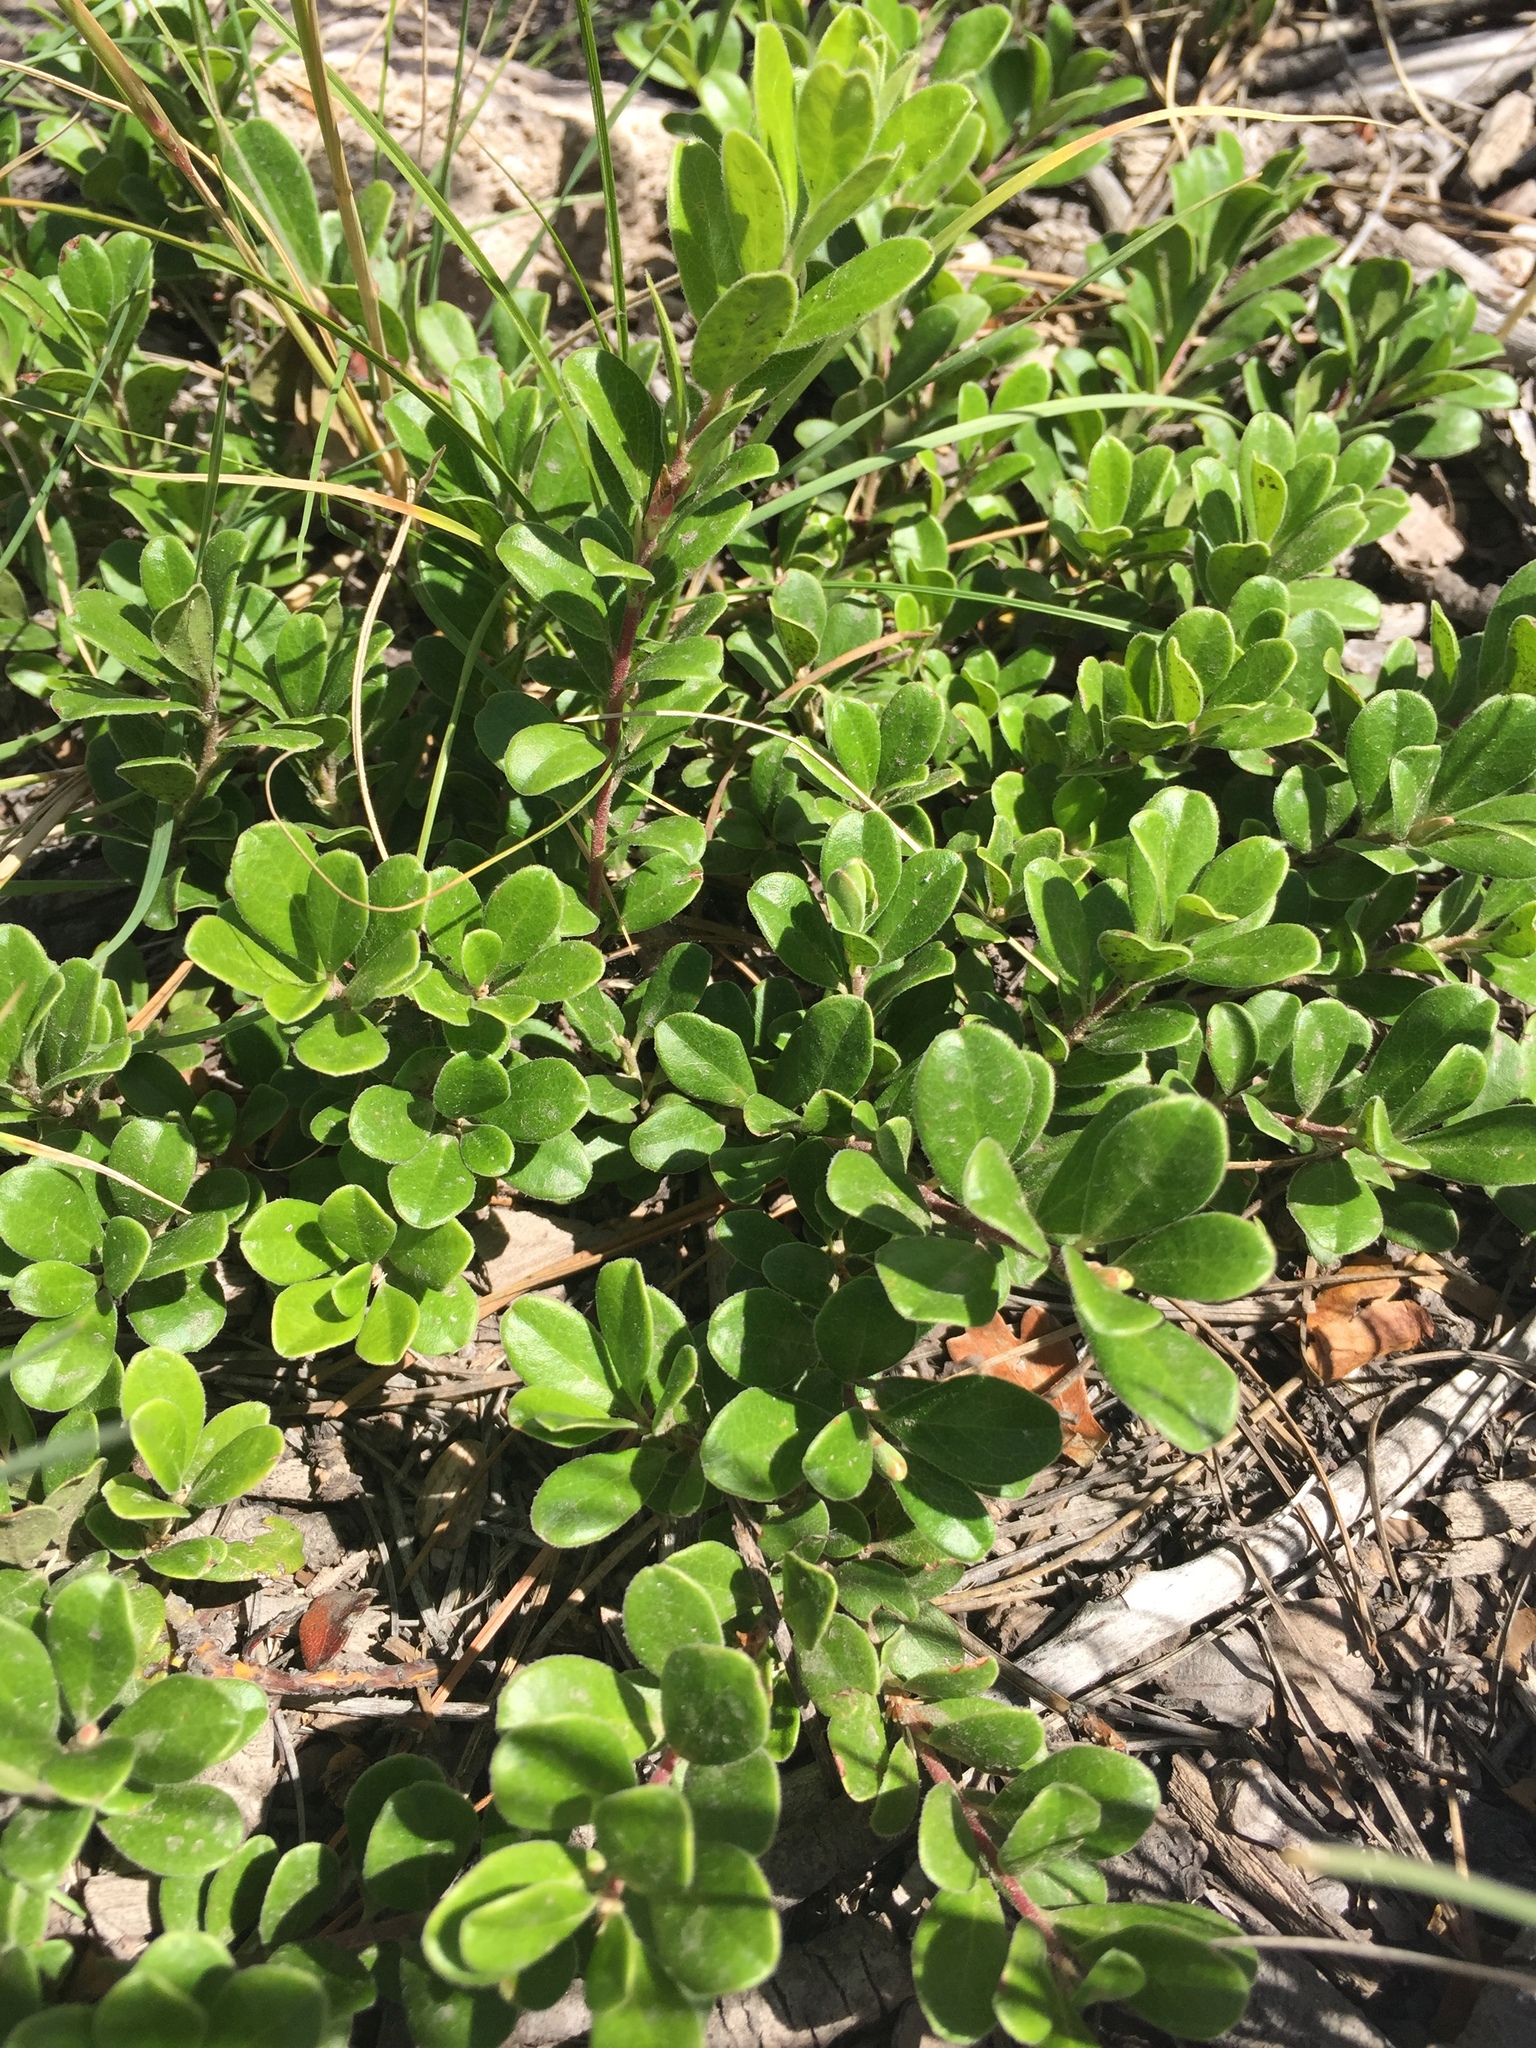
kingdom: Plantae
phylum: Tracheophyta
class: Magnoliopsida
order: Ericales
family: Ericaceae
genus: Arctostaphylos
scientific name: Arctostaphylos uva-ursi
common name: Bearberry
